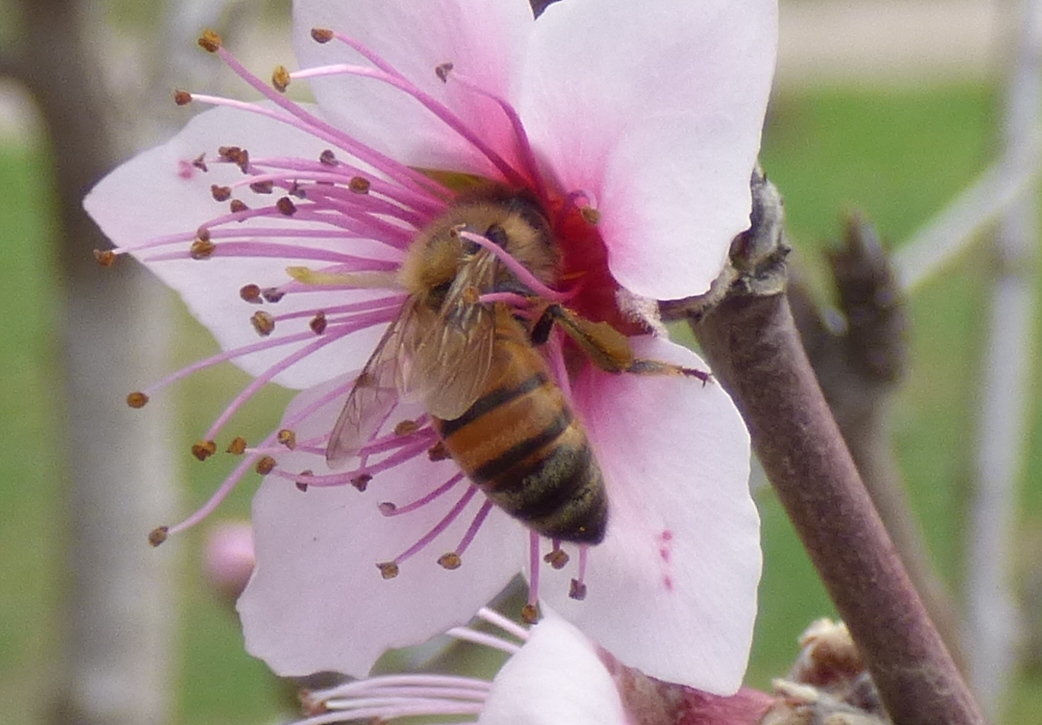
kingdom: Animalia
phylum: Arthropoda
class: Insecta
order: Hymenoptera
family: Apidae
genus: Apis
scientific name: Apis mellifera
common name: Honey bee
